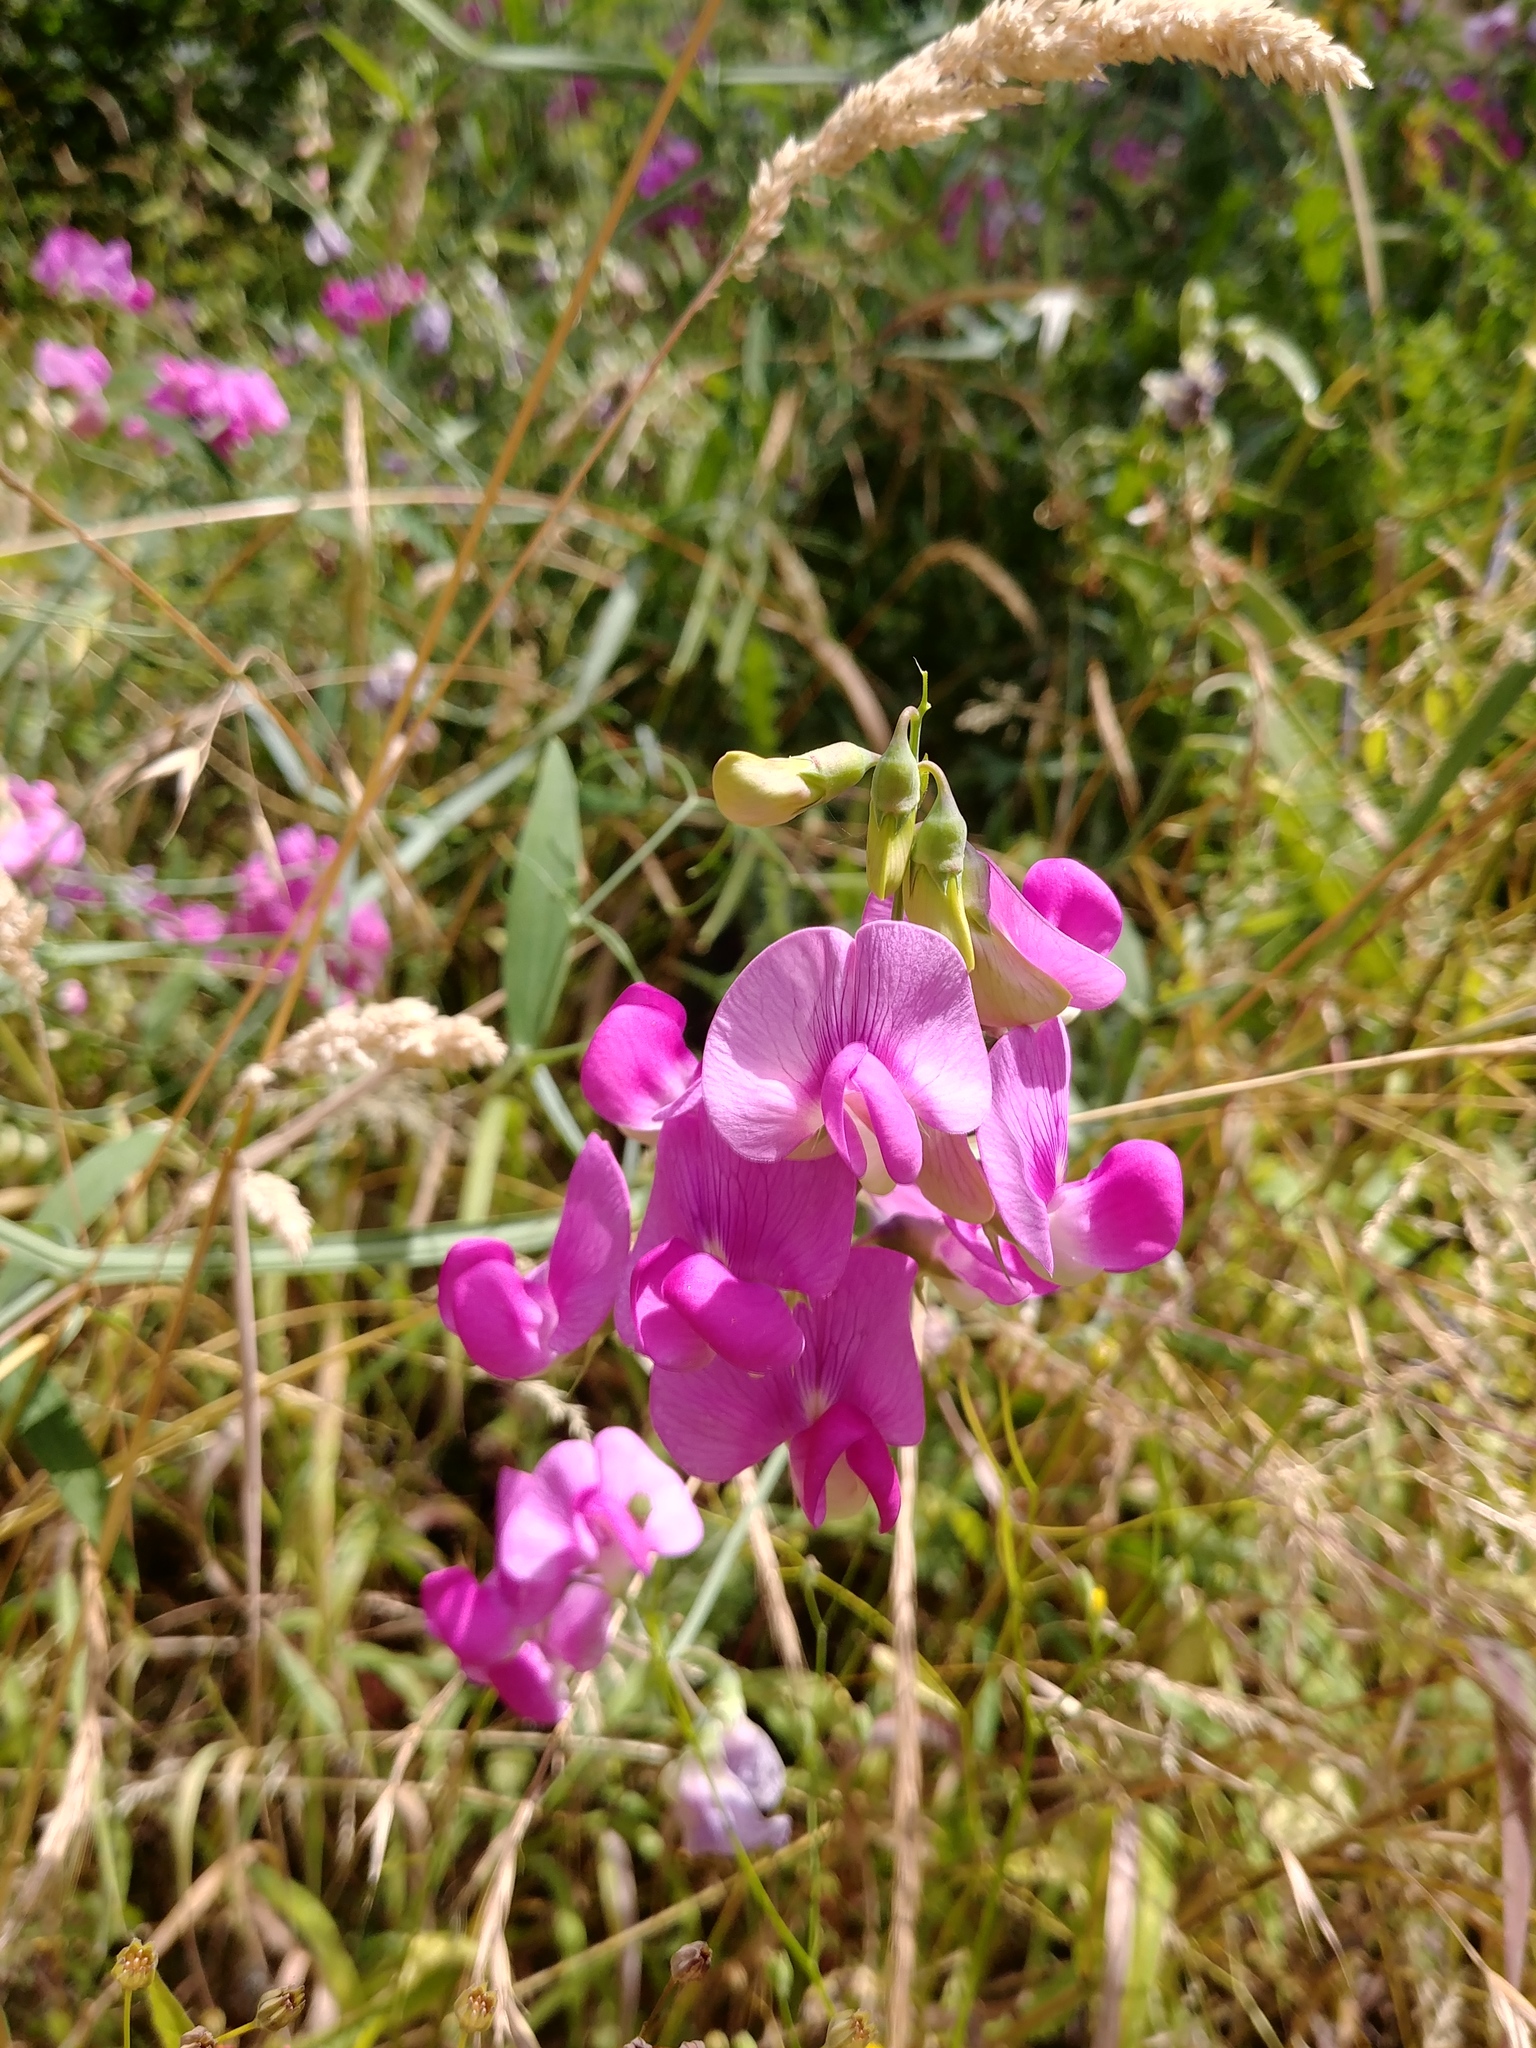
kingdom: Plantae
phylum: Tracheophyta
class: Magnoliopsida
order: Fabales
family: Fabaceae
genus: Lathyrus
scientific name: Lathyrus latifolius
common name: Perennial pea
